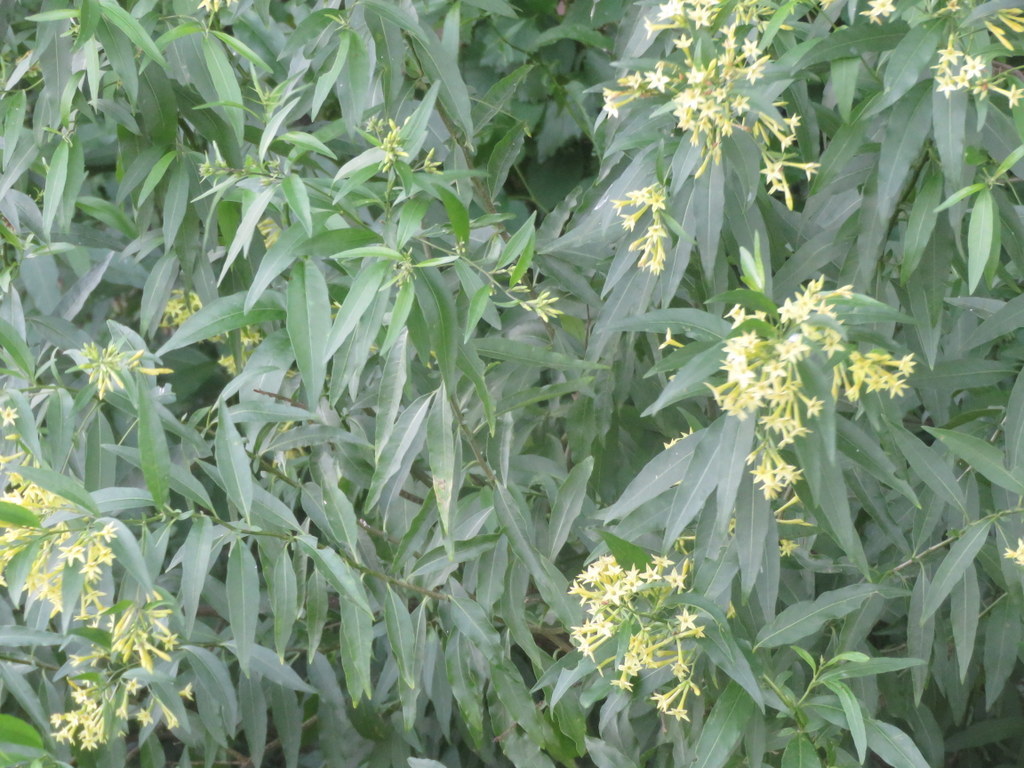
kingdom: Plantae
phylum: Tracheophyta
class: Magnoliopsida
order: Solanales
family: Solanaceae
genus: Cestrum
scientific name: Cestrum parqui
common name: Chilean cestrum
